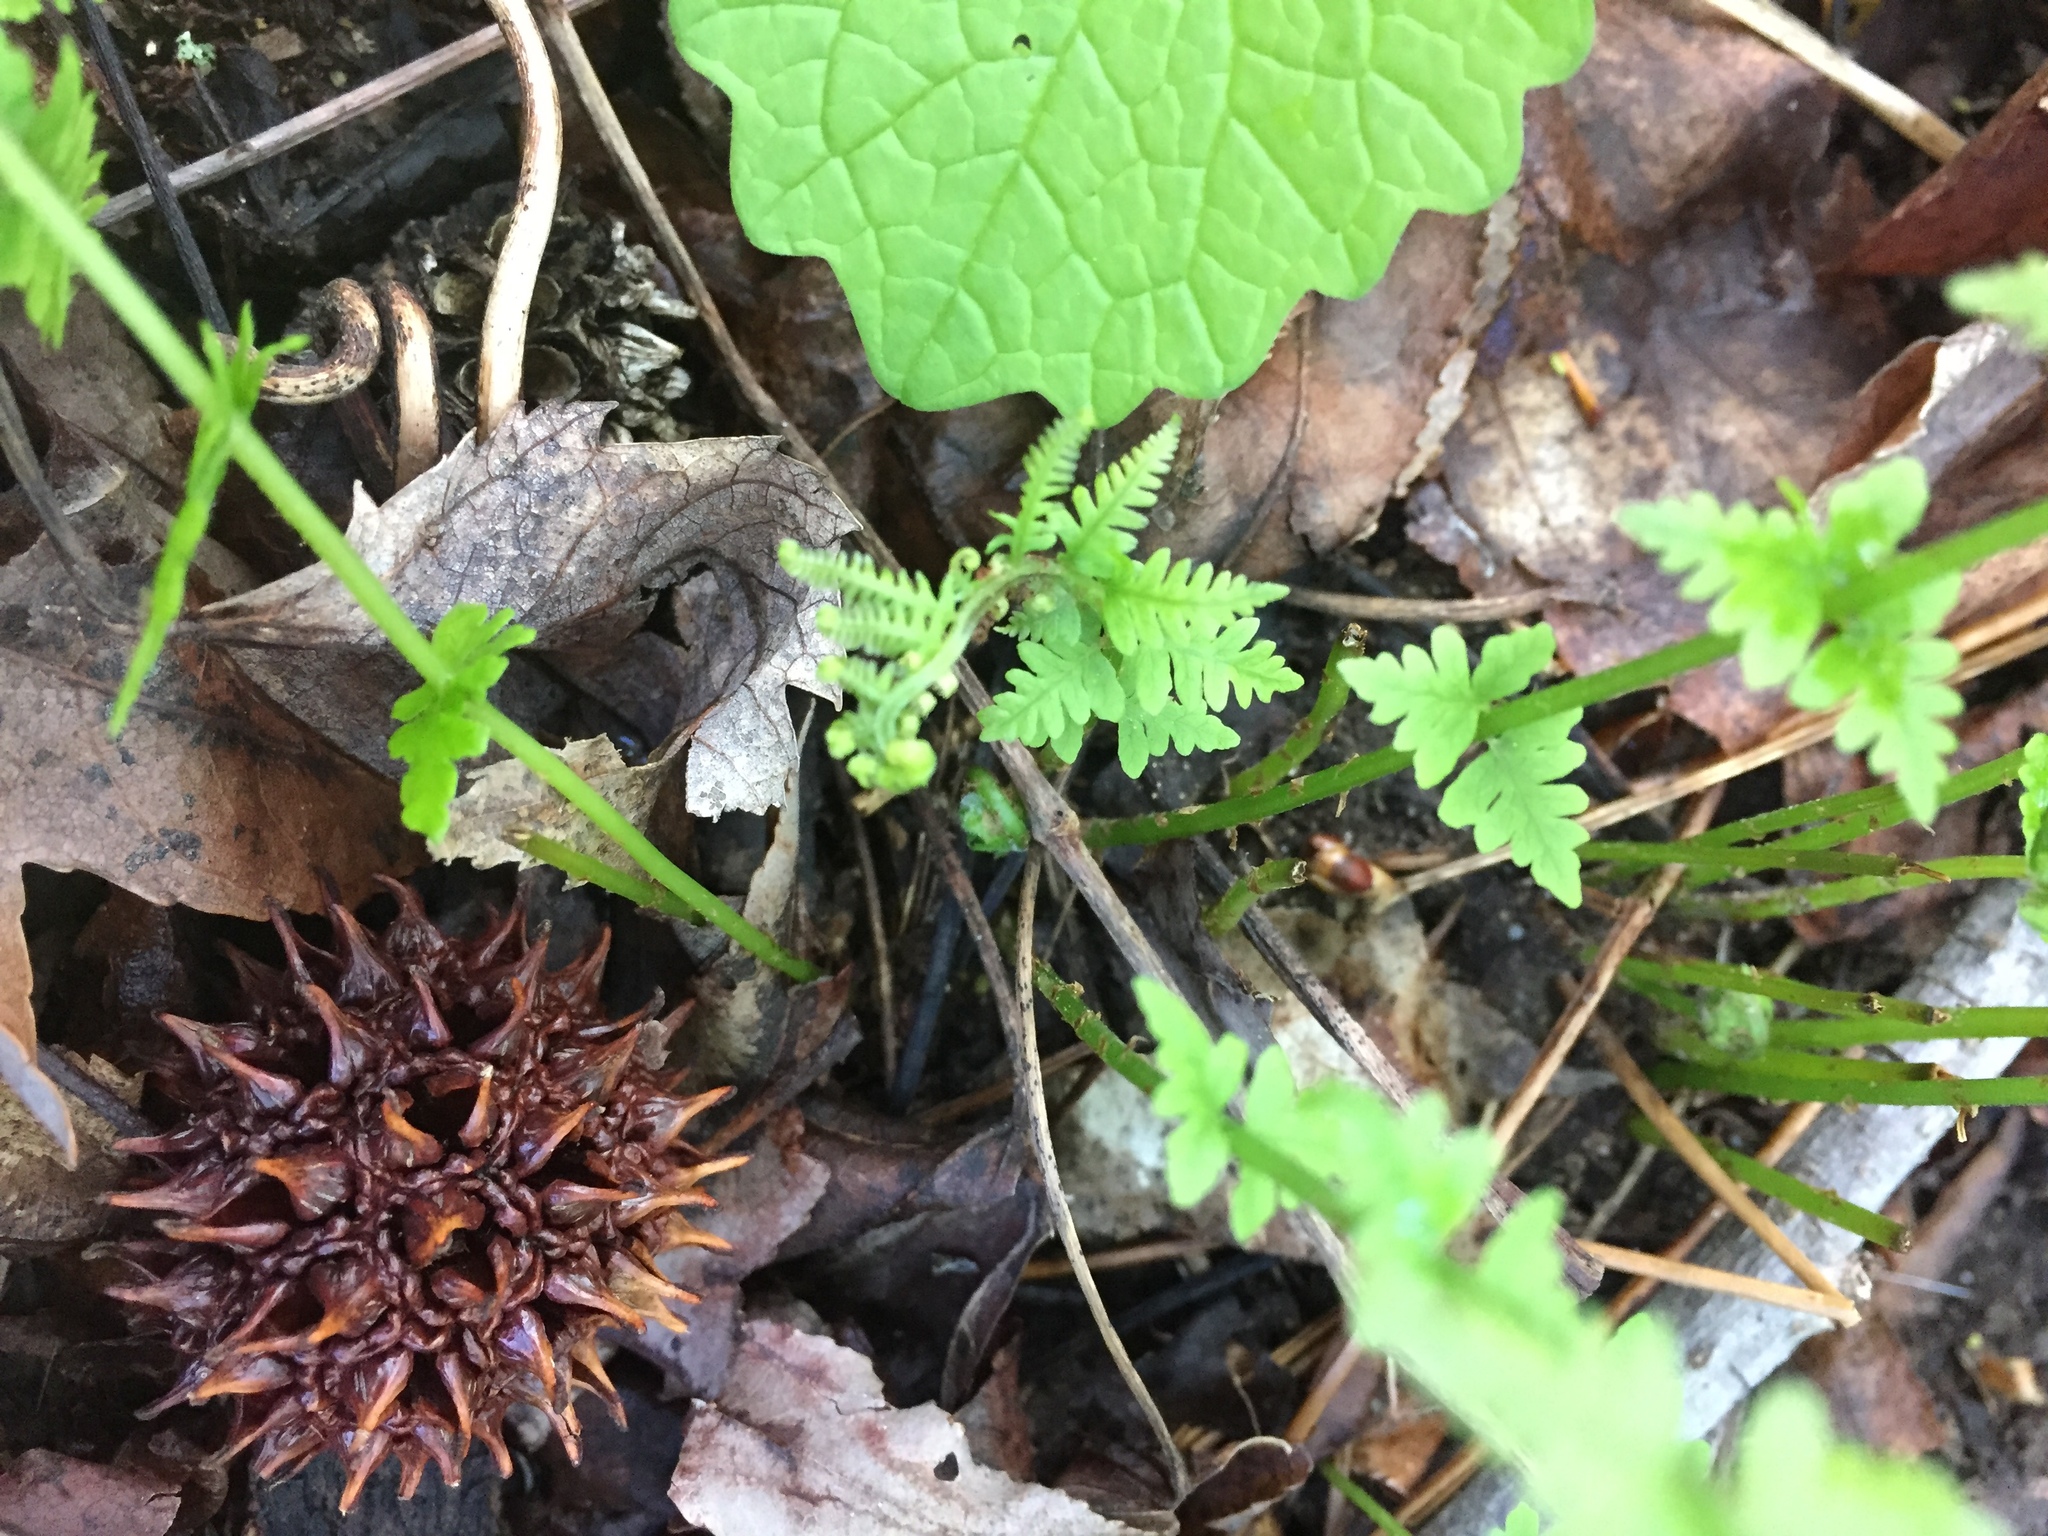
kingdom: Plantae
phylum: Tracheophyta
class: Polypodiopsida
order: Polypodiales
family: Thelypteridaceae
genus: Amauropelta
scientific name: Amauropelta noveboracensis
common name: New york fern
